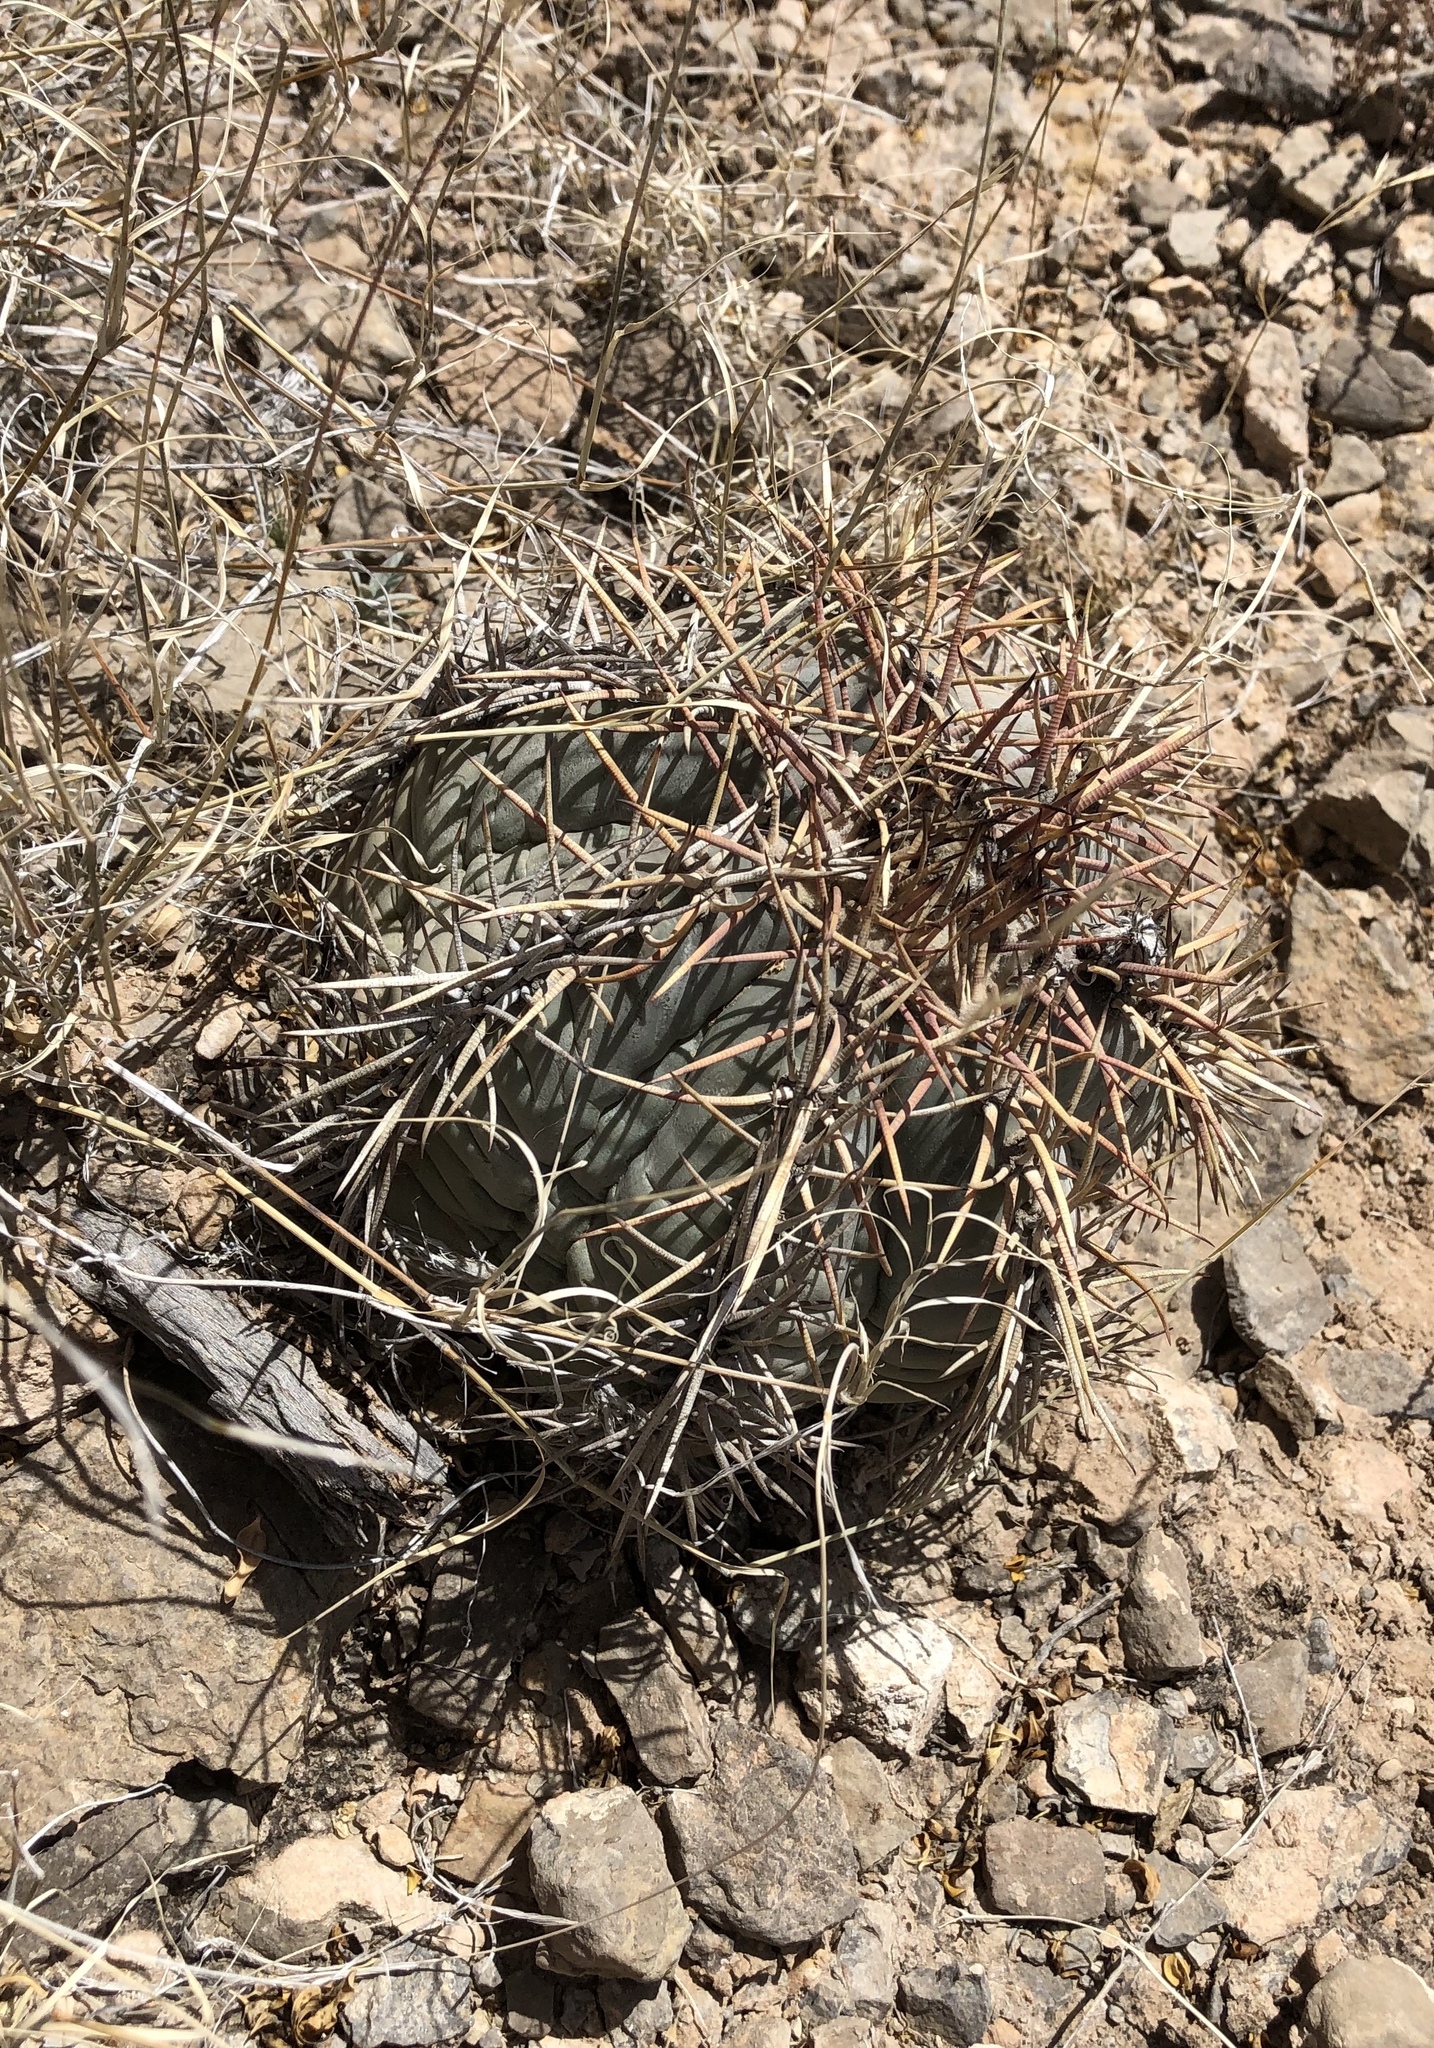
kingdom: Plantae
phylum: Tracheophyta
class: Magnoliopsida
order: Caryophyllales
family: Cactaceae
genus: Echinocactus
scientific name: Echinocactus horizonthalonius
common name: Devilshead
